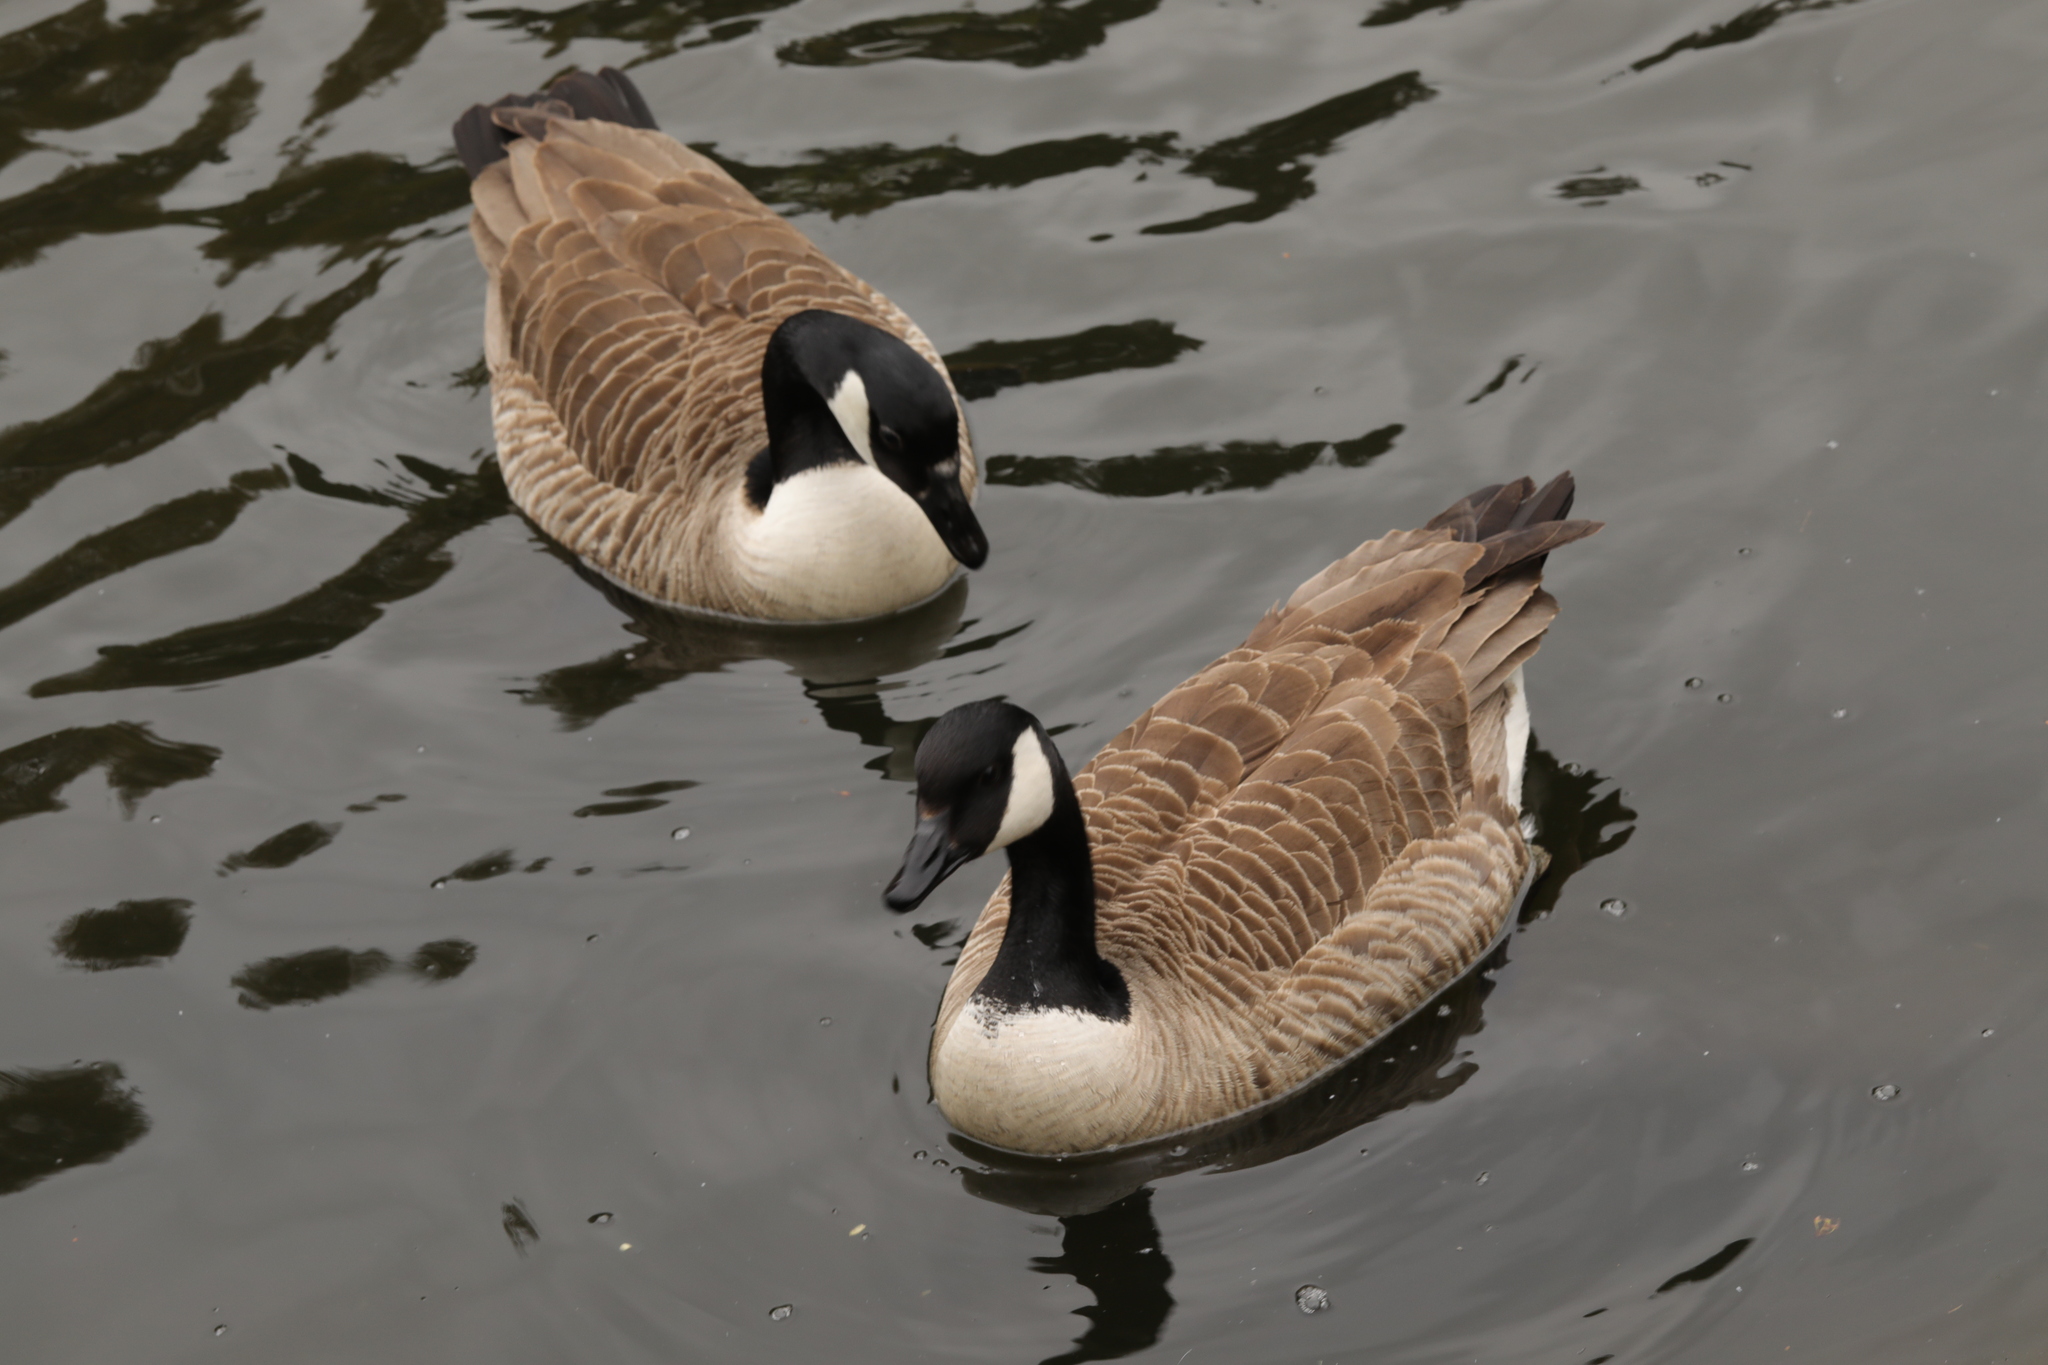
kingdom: Animalia
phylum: Chordata
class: Aves
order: Anseriformes
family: Anatidae
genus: Branta
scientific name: Branta canadensis
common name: Canada goose
